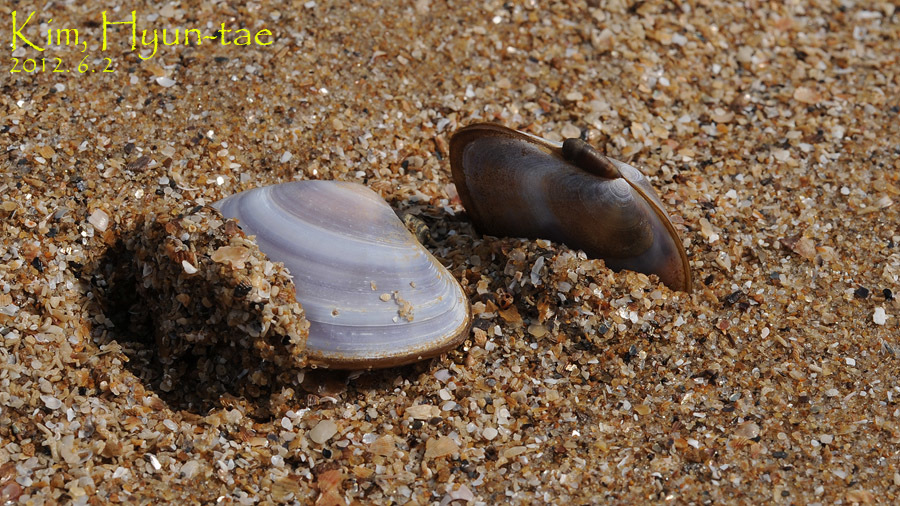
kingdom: Animalia
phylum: Mollusca
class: Bivalvia
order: Cardiida
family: Psammobiidae
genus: Nuttallia
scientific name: Nuttallia obscurata
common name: Purple mahogany-clam
